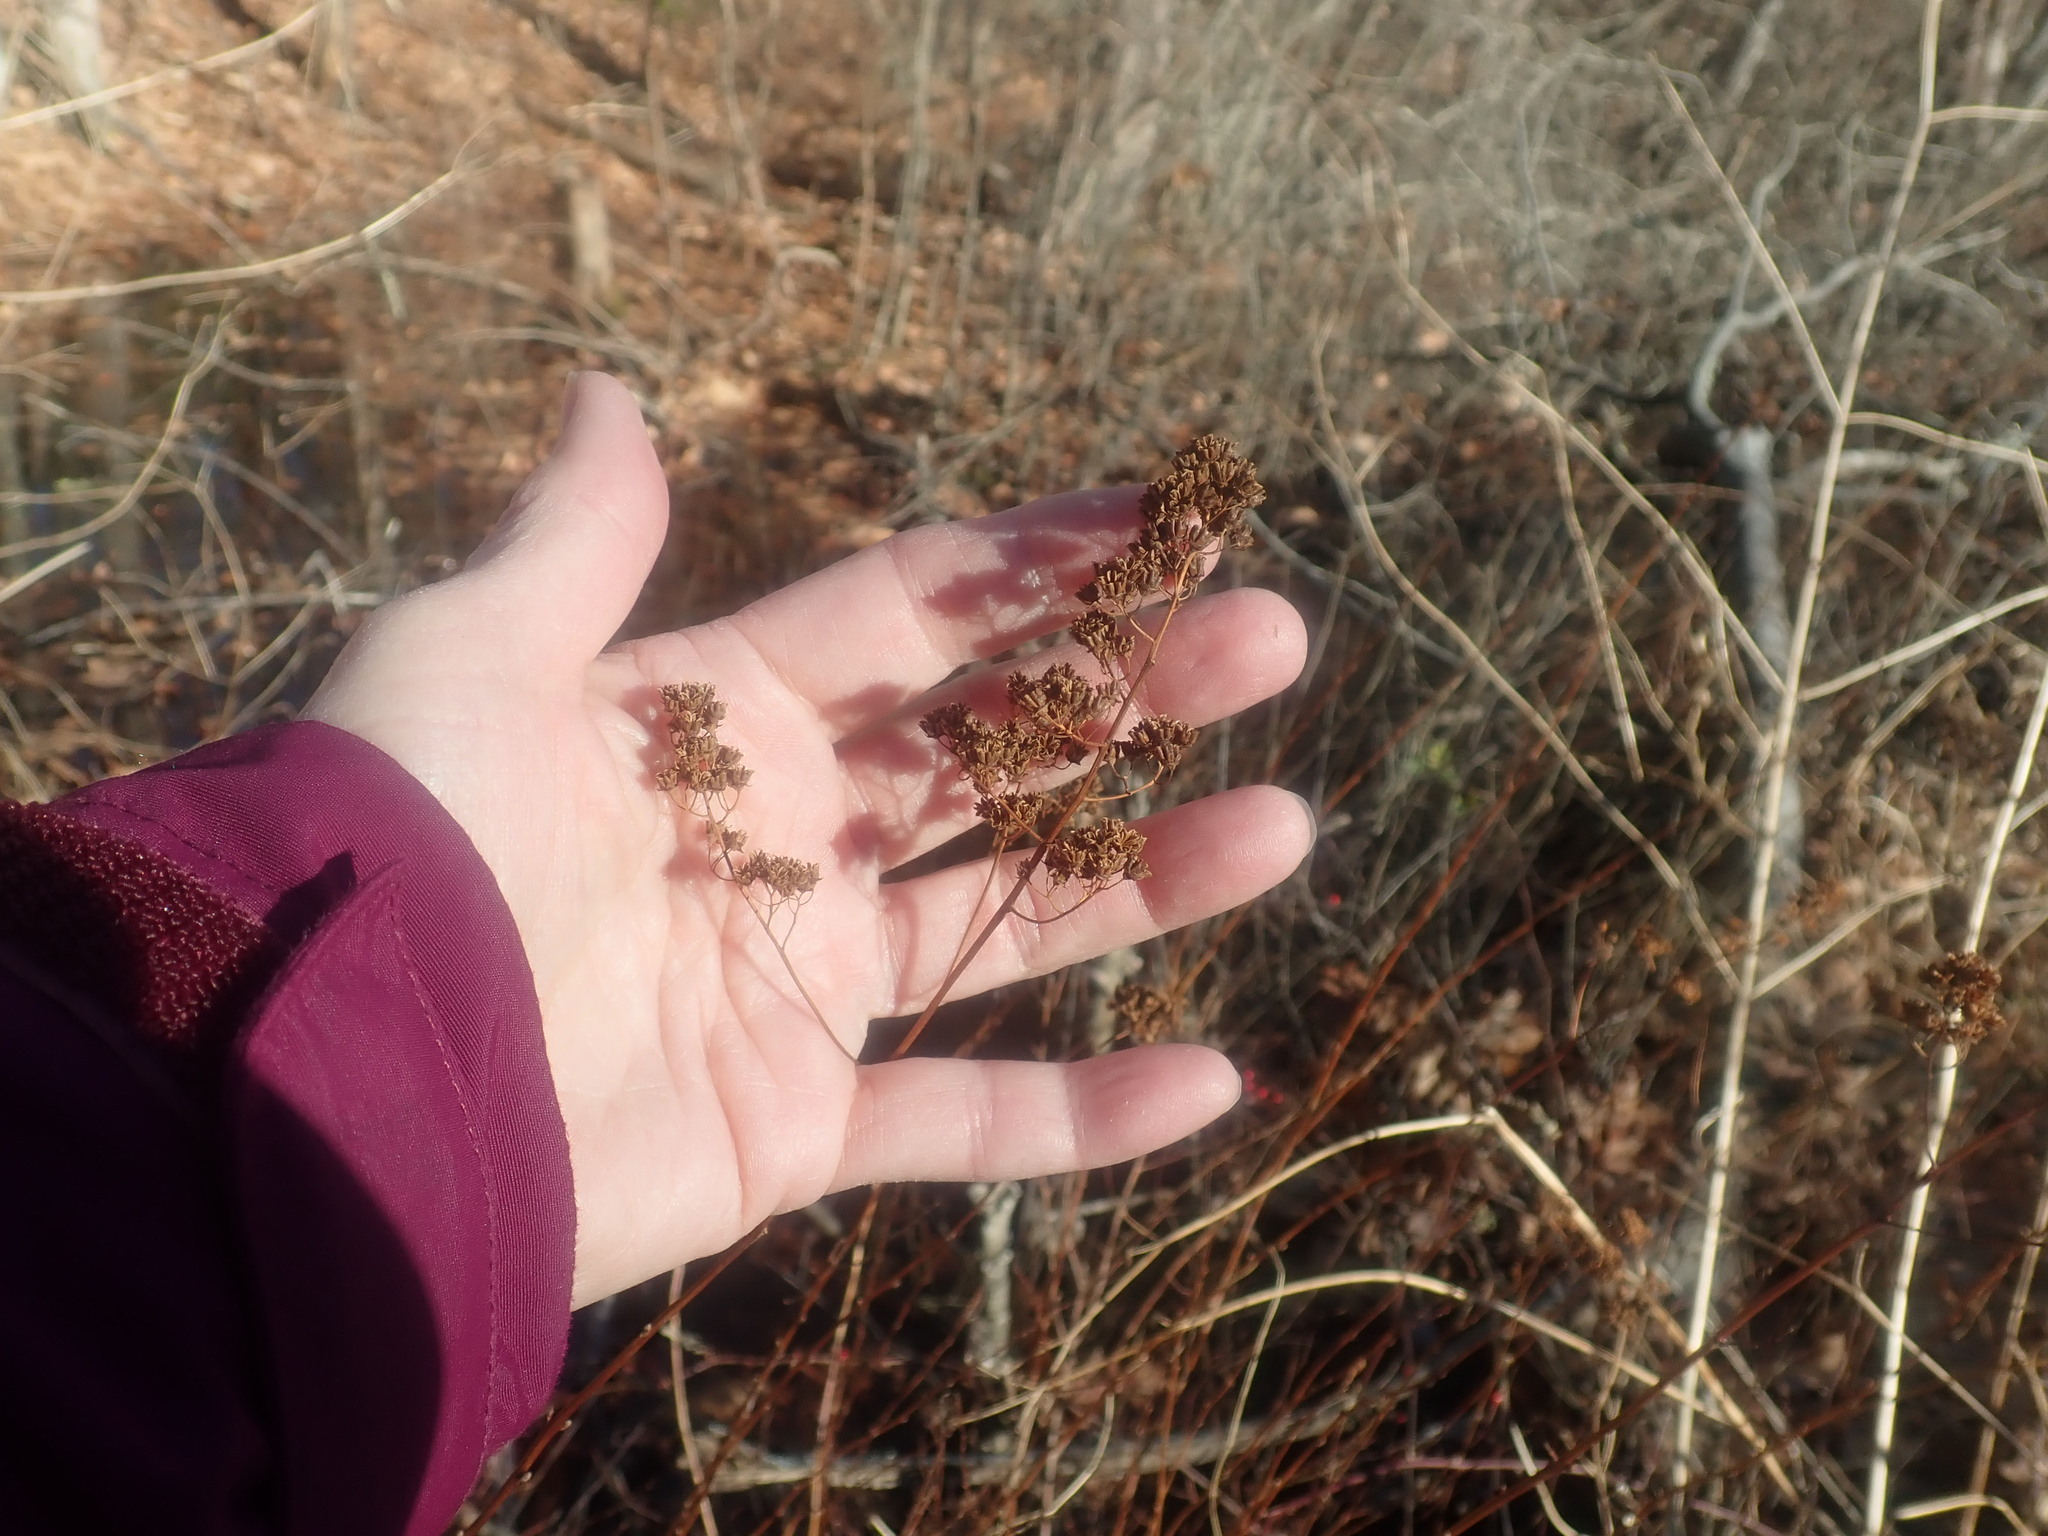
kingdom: Plantae
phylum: Tracheophyta
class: Magnoliopsida
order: Rosales
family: Rosaceae
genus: Spiraea
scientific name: Spiraea alba
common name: Pale bridewort
